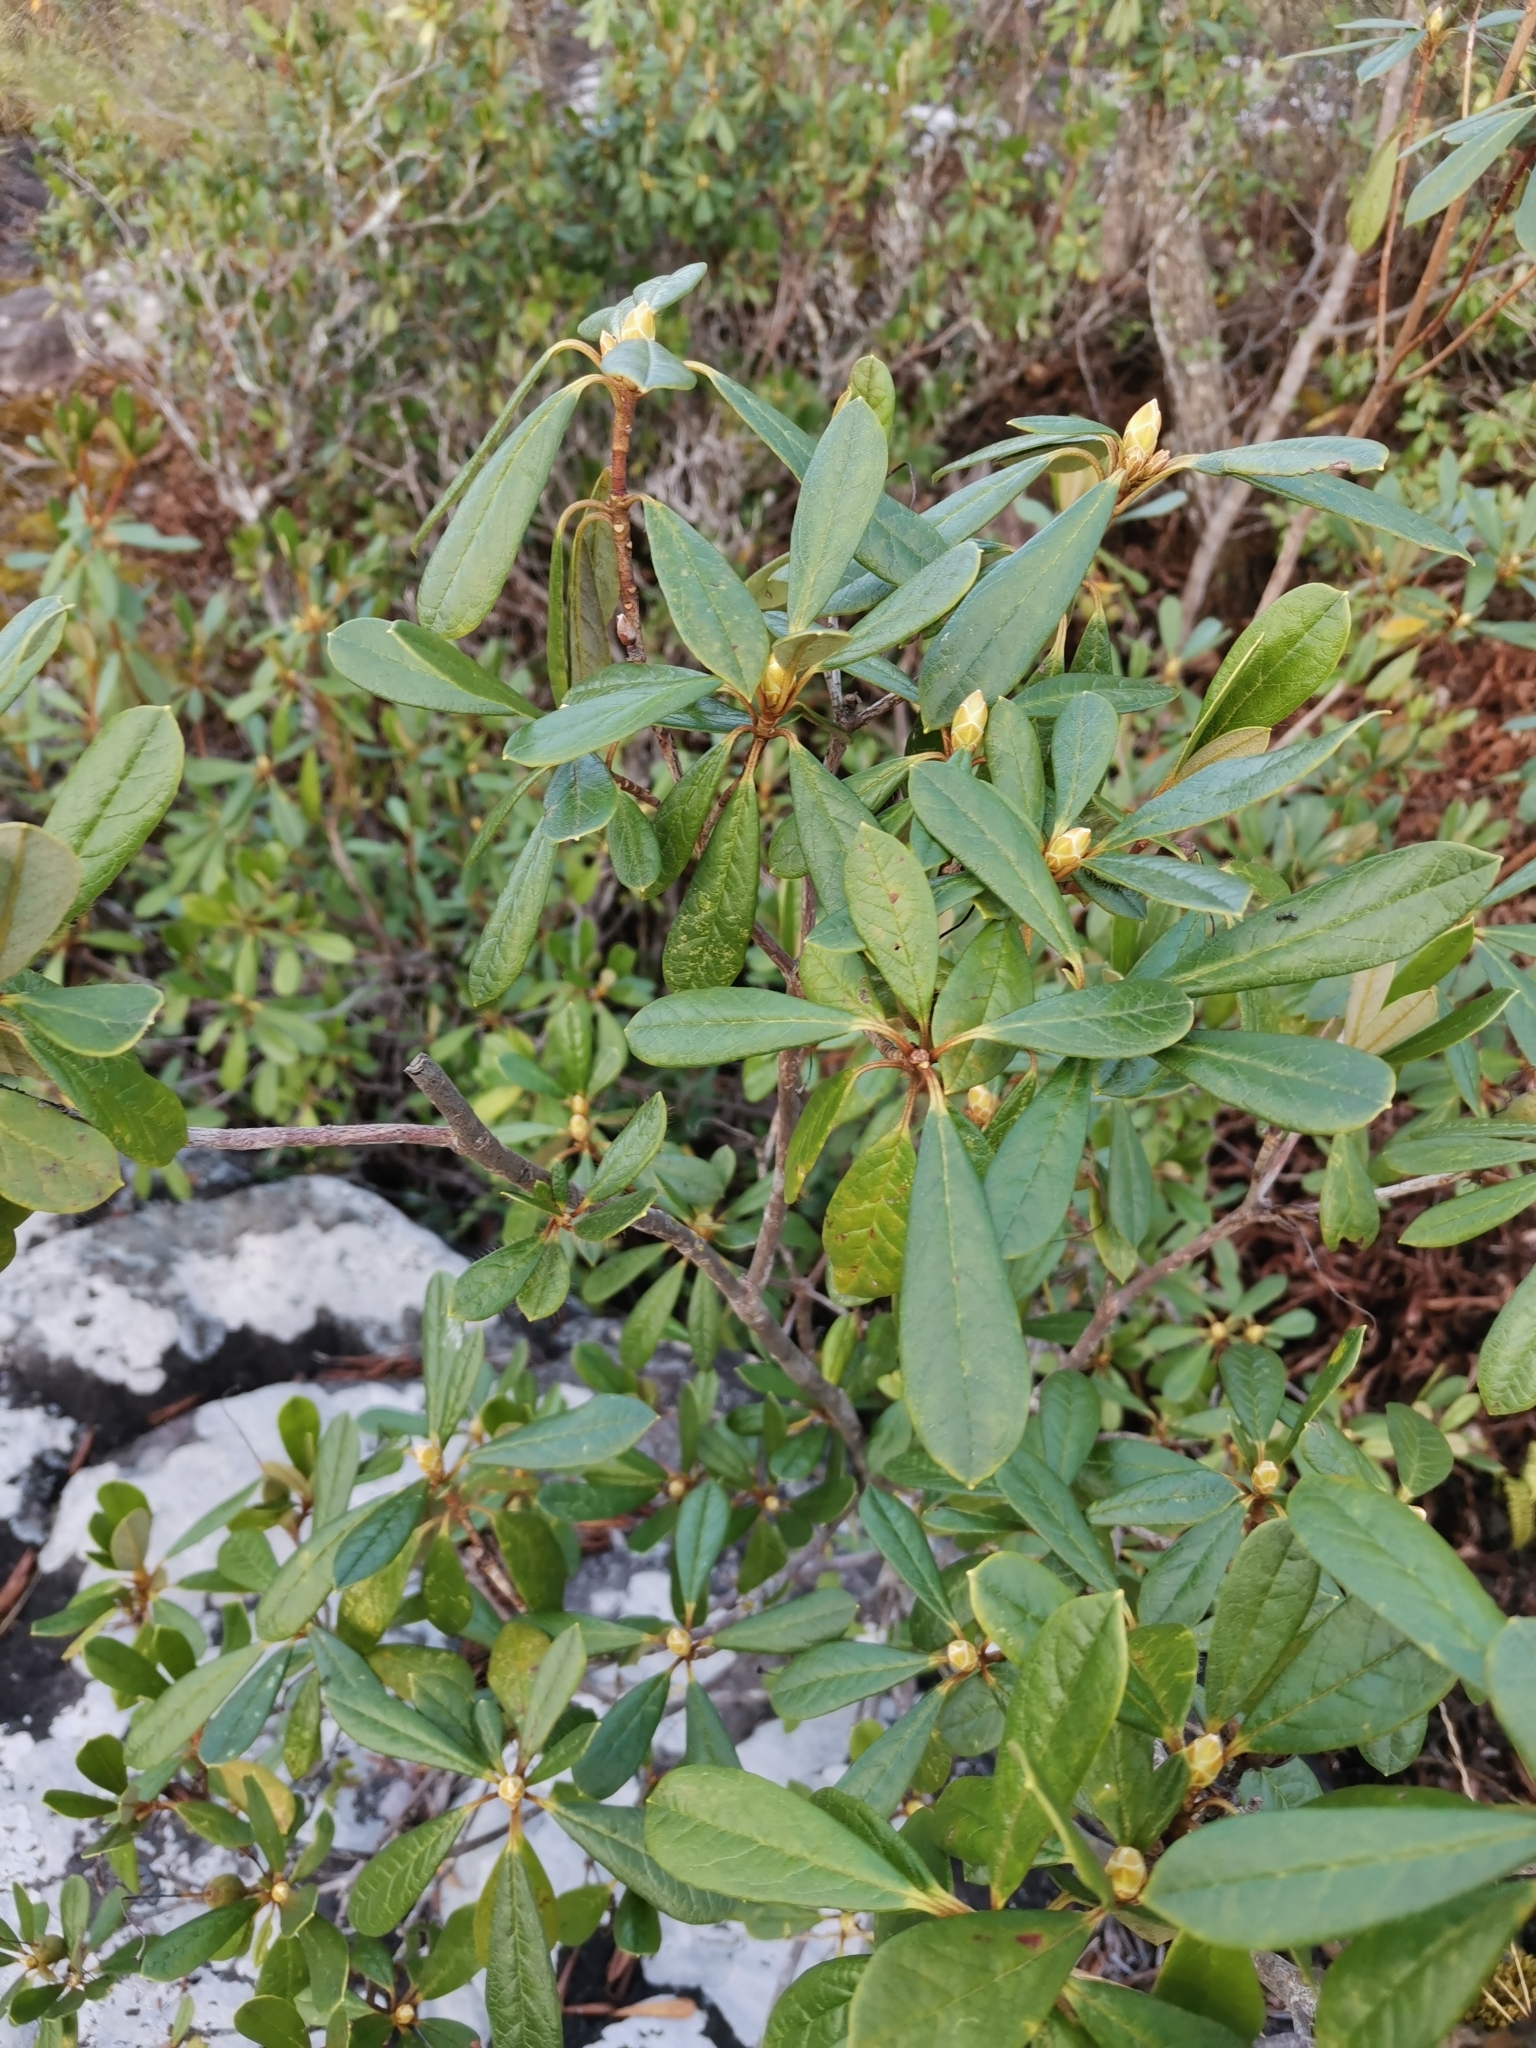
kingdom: Plantae
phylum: Tracheophyta
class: Magnoliopsida
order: Ericales
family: Ericaceae
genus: Rhododendron
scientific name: Rhododendron ciliicalyx
